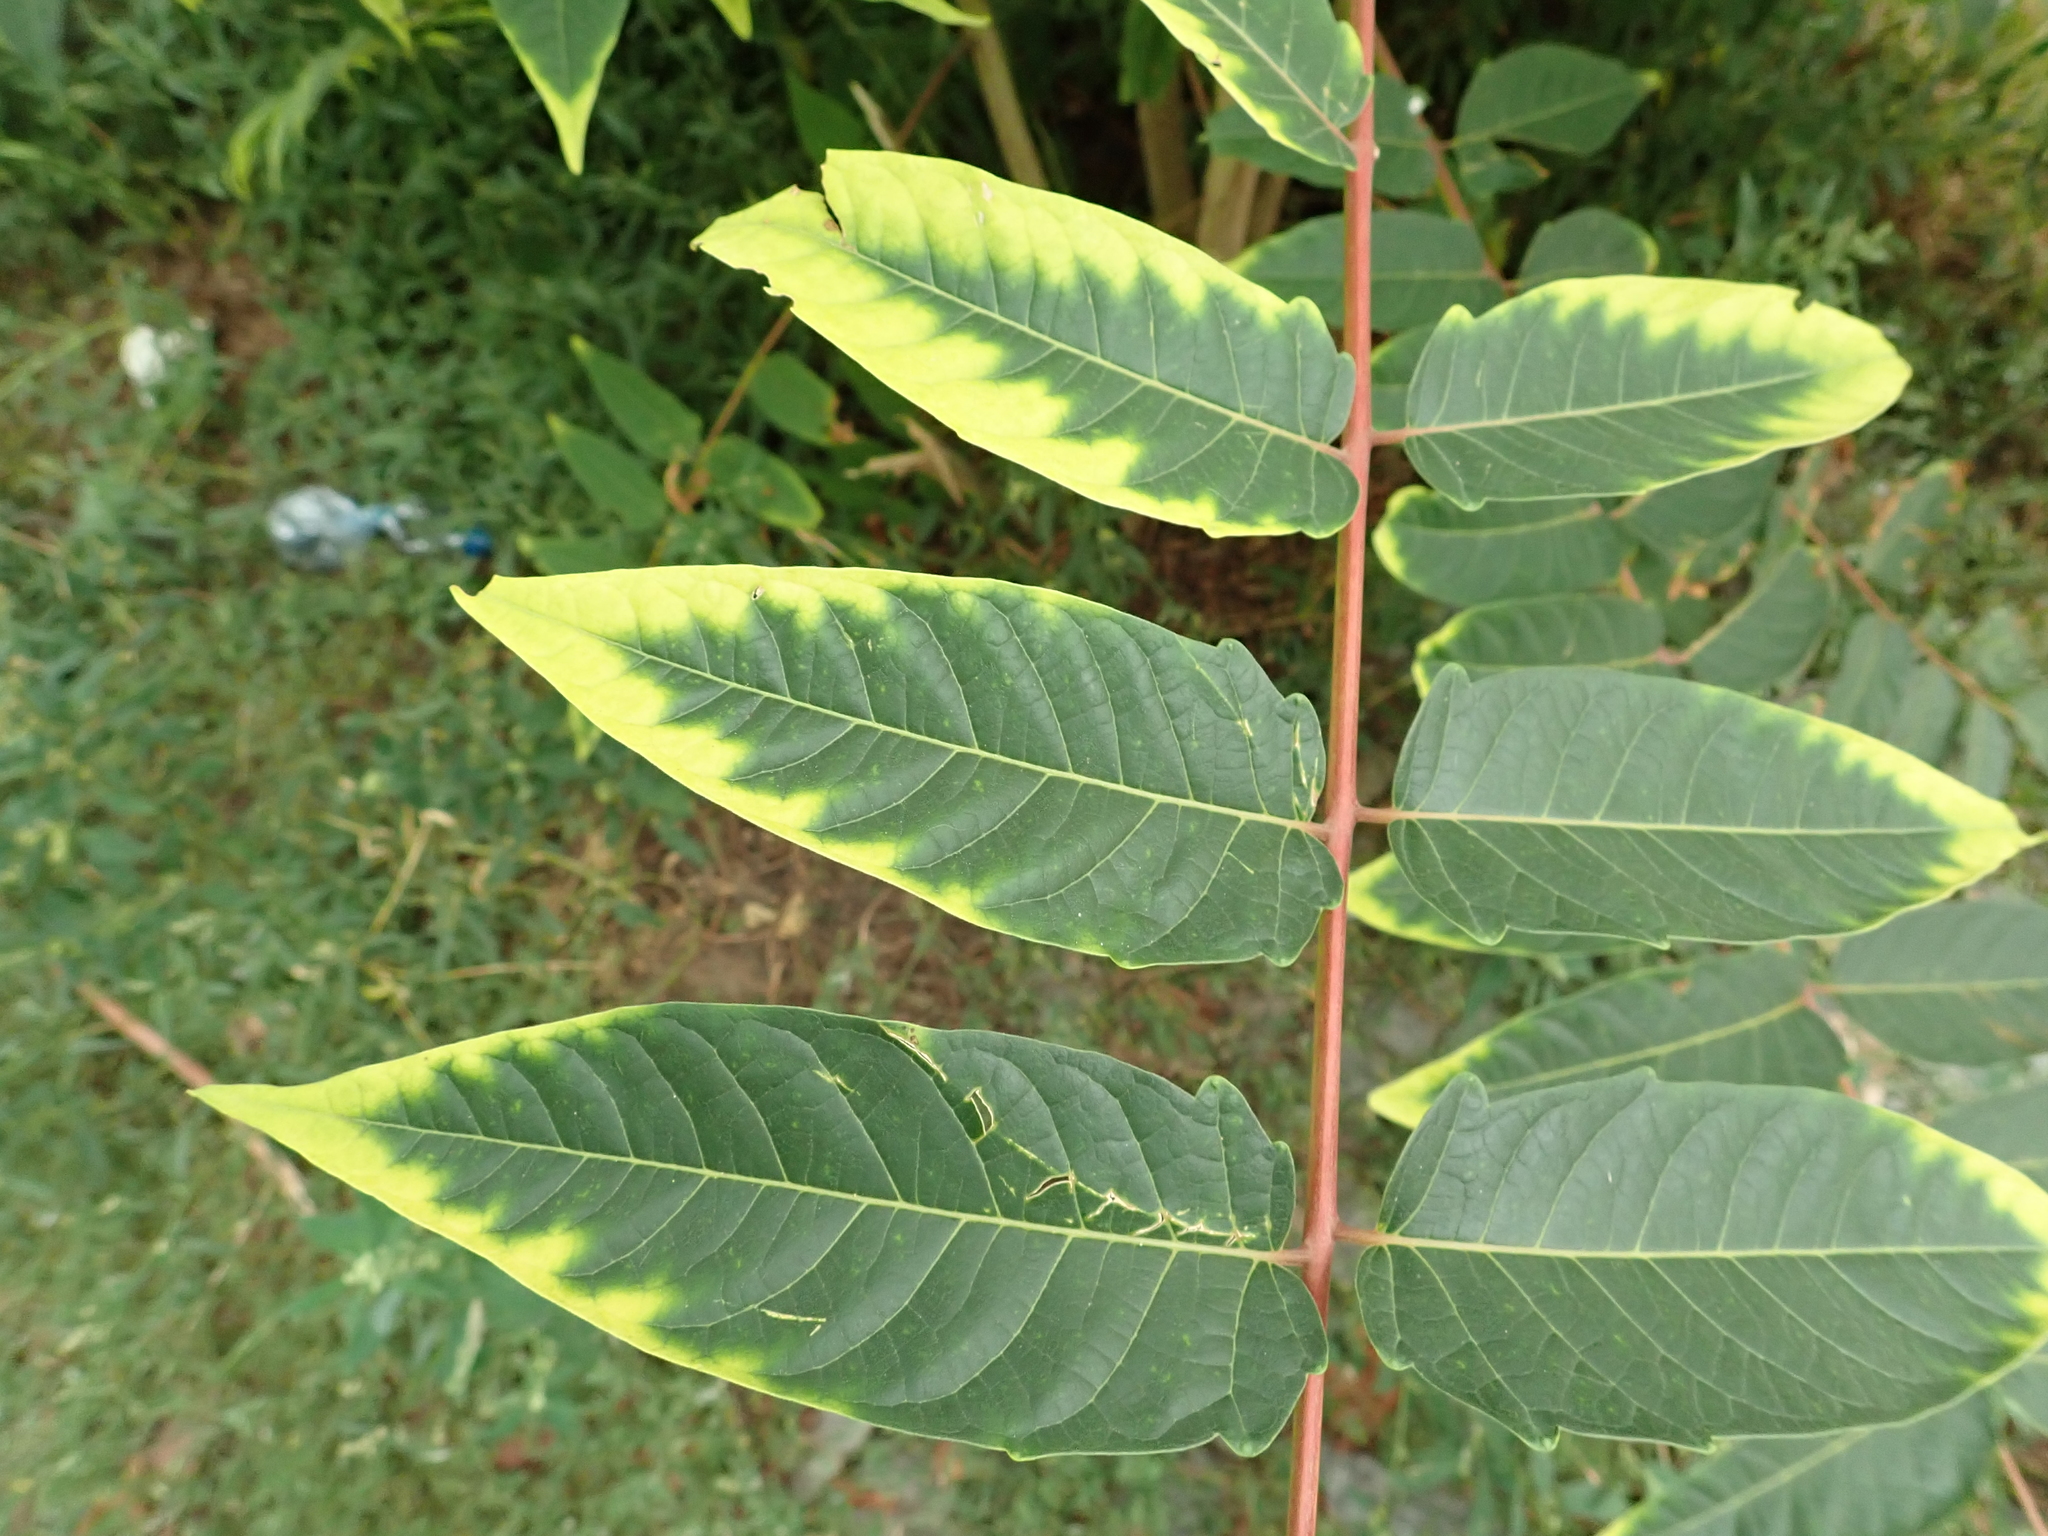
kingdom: Plantae
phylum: Tracheophyta
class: Magnoliopsida
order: Sapindales
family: Simaroubaceae
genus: Ailanthus
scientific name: Ailanthus altissima
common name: Tree-of-heaven
